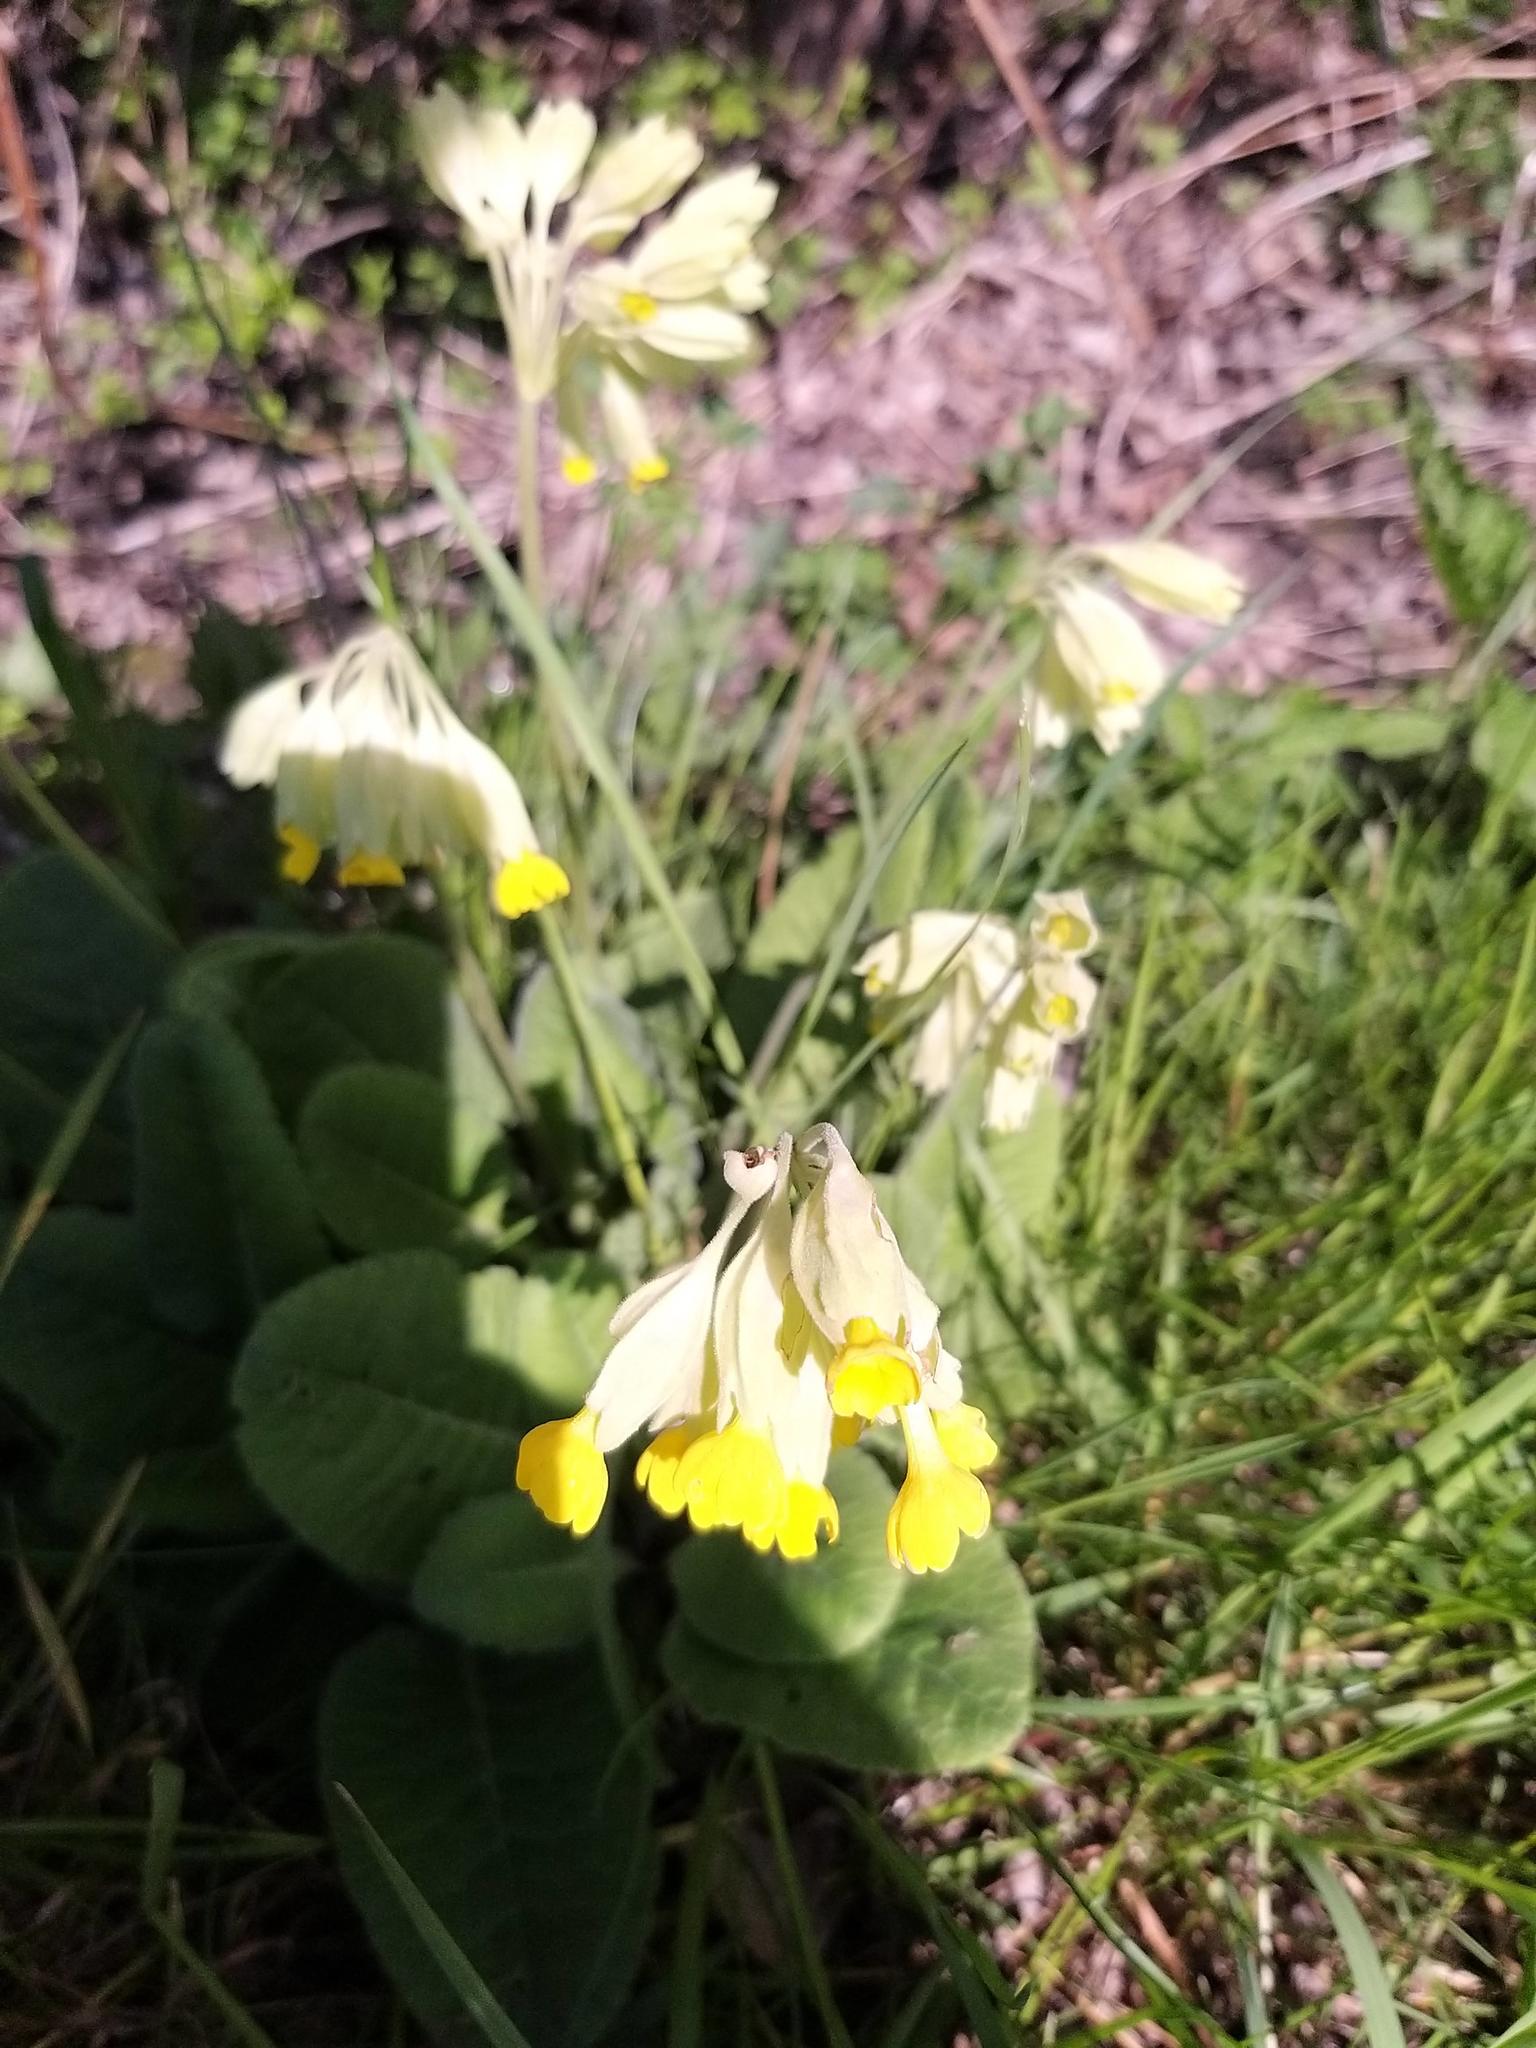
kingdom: Plantae
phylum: Tracheophyta
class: Magnoliopsida
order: Ericales
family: Primulaceae
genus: Primula
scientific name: Primula veris
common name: Cowslip
